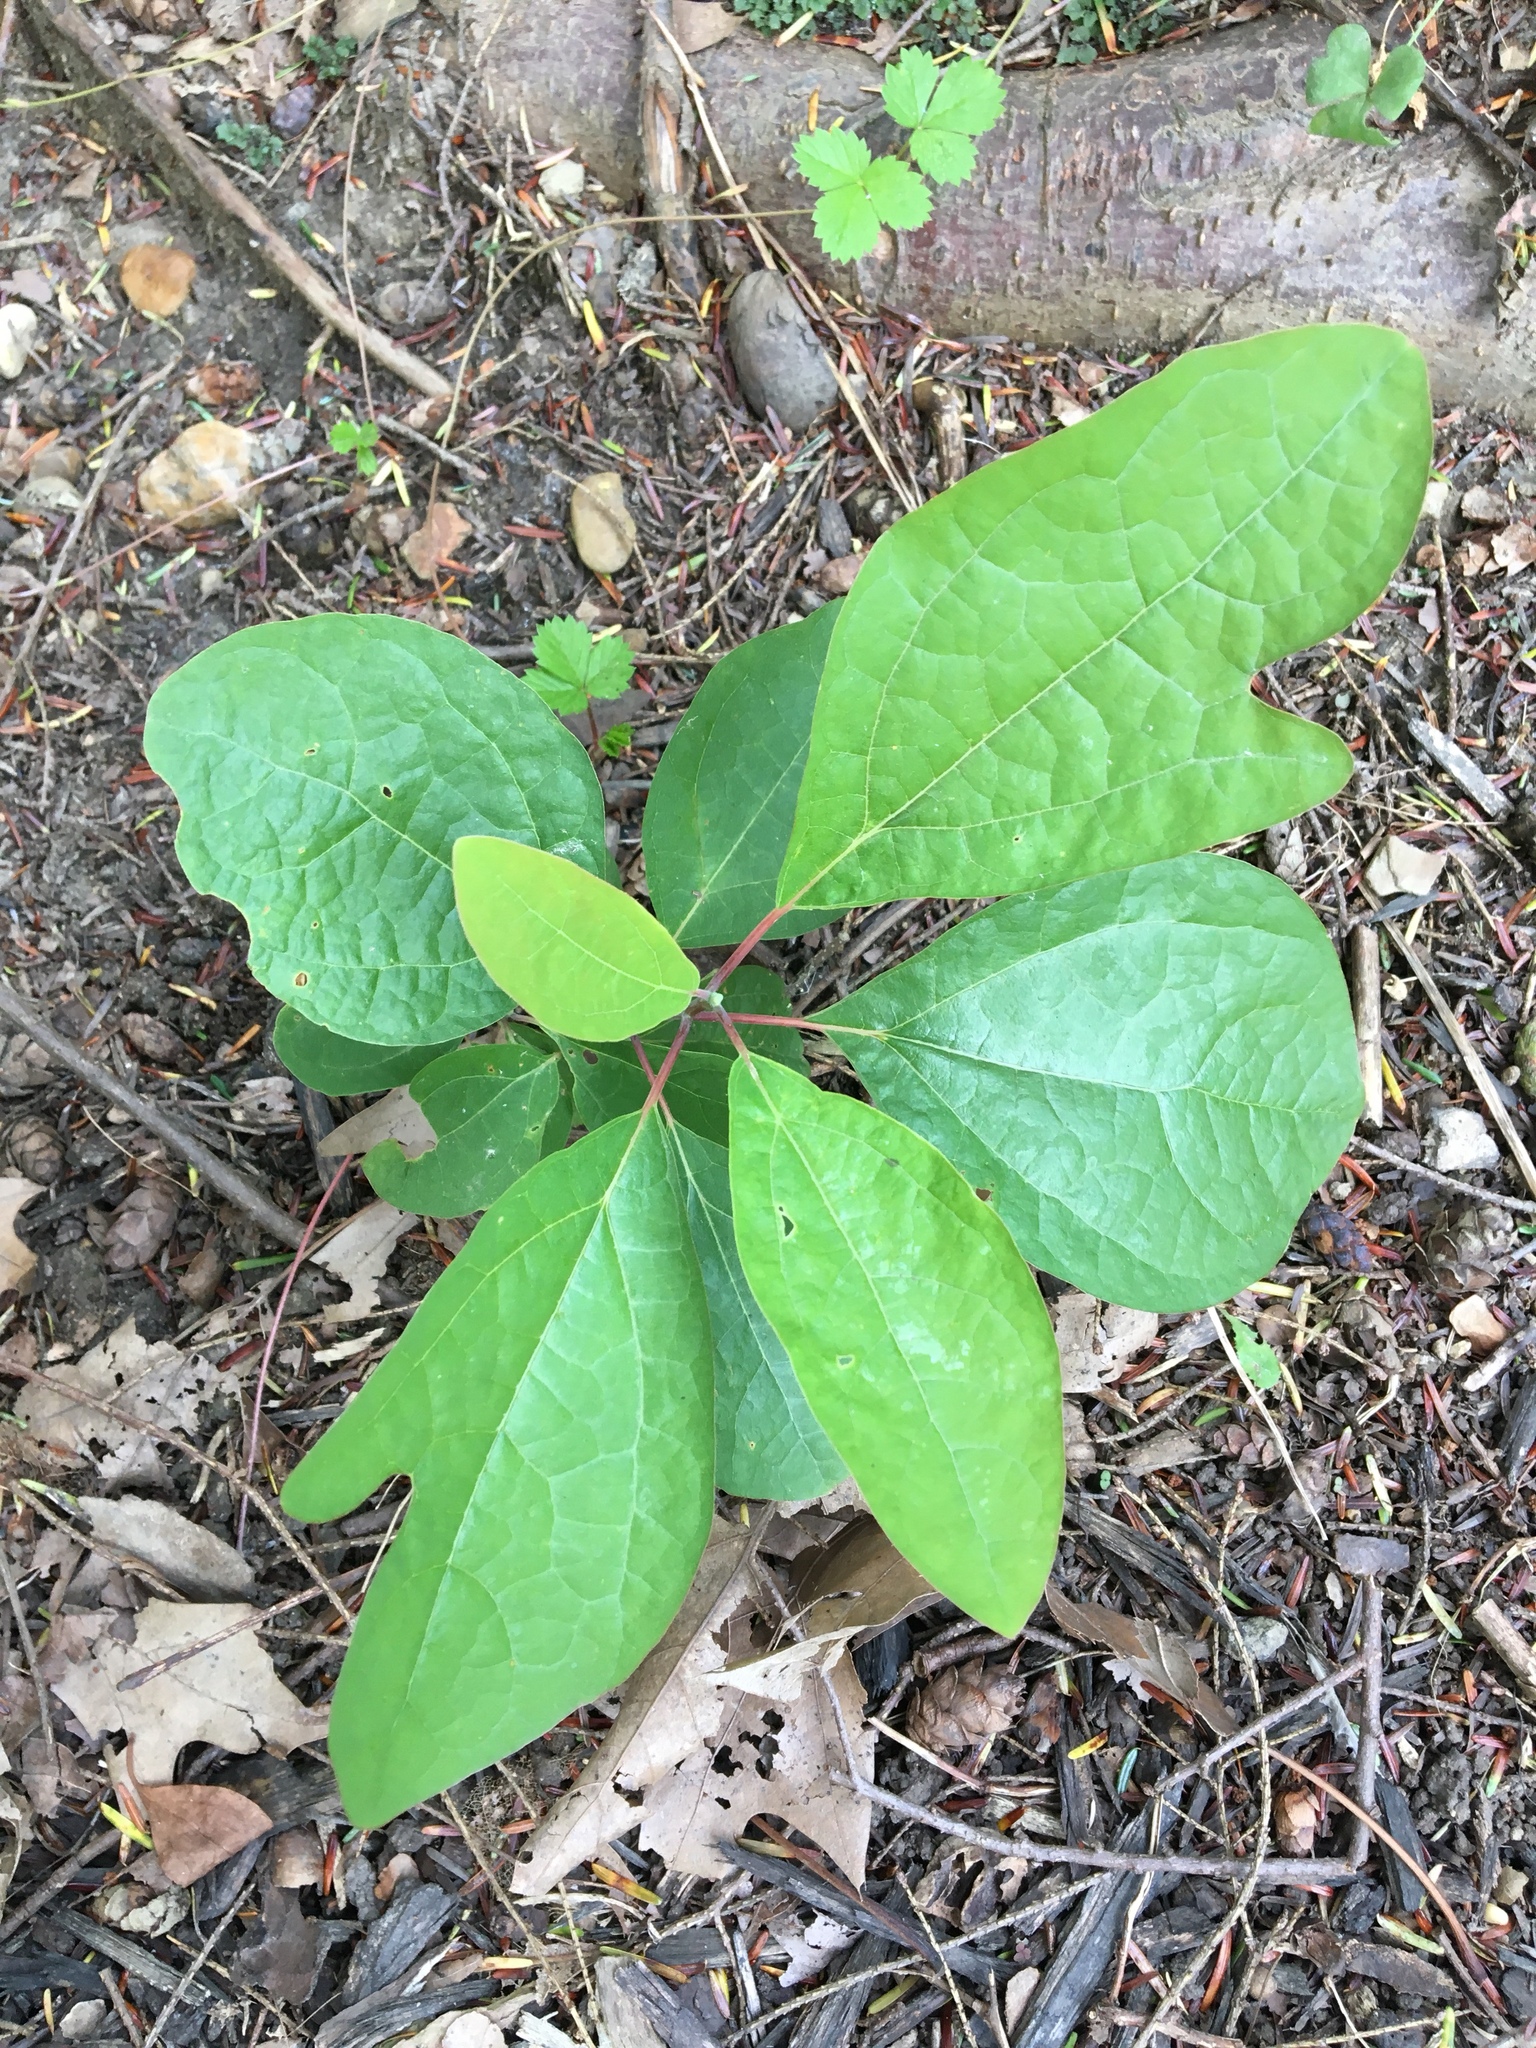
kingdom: Plantae
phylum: Tracheophyta
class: Magnoliopsida
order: Laurales
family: Lauraceae
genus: Sassafras
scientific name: Sassafras albidum
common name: Sassafras
